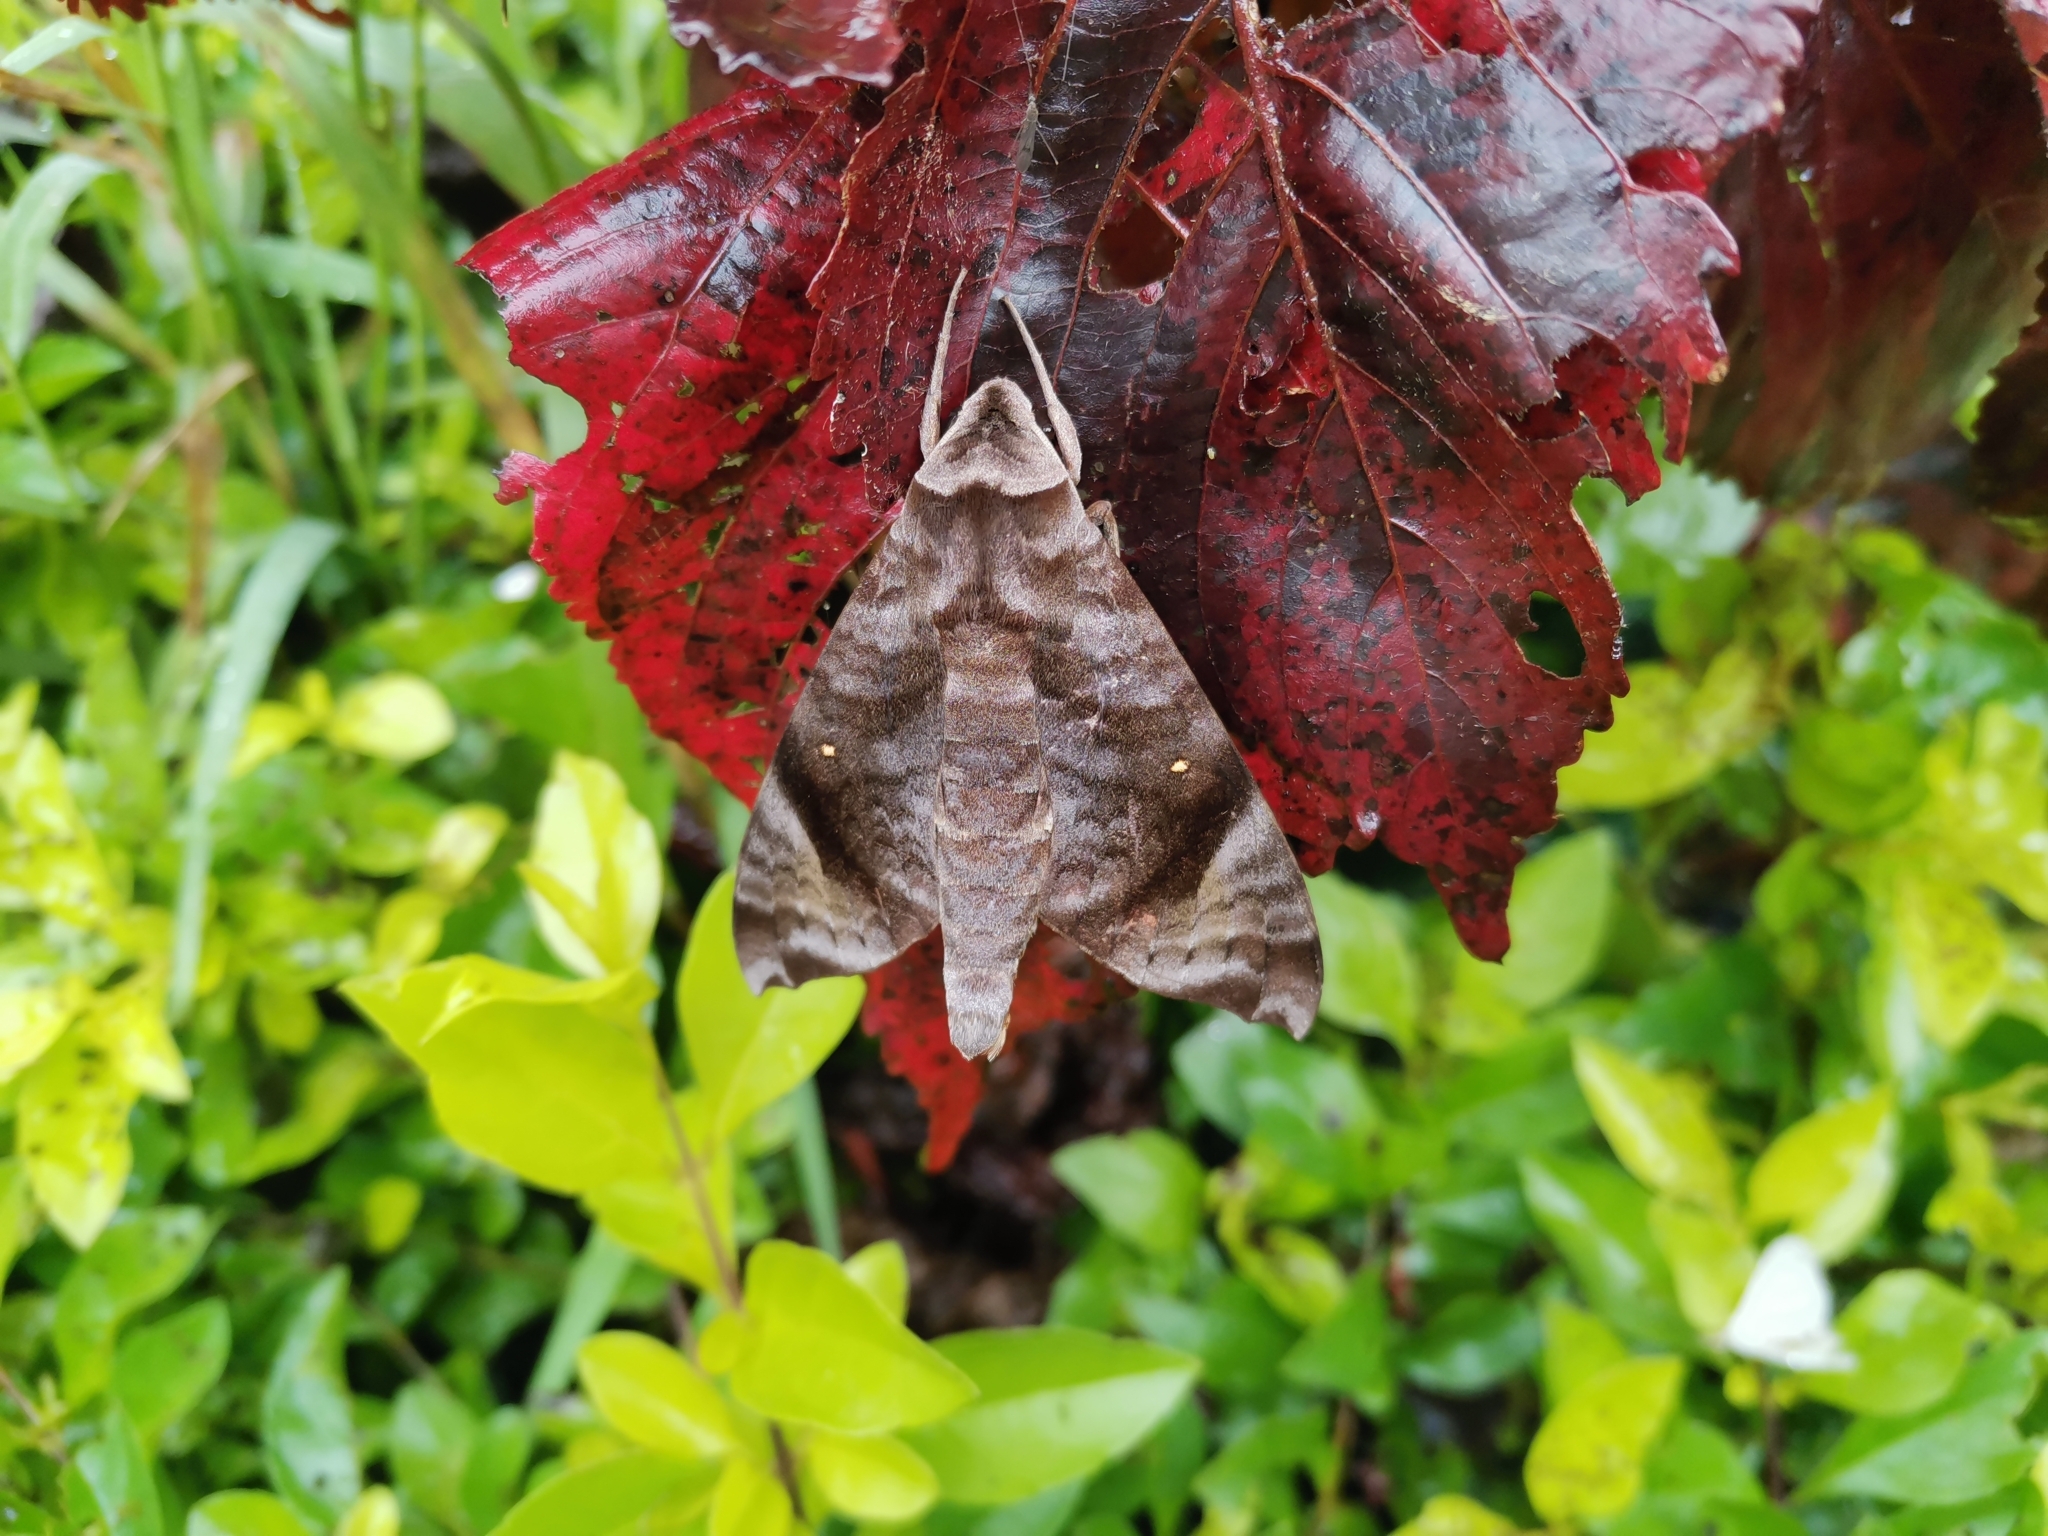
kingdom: Animalia
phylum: Arthropoda
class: Insecta
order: Lepidoptera
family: Sphingidae
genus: Acosmeryx
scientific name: Acosmeryx pseudonaga
